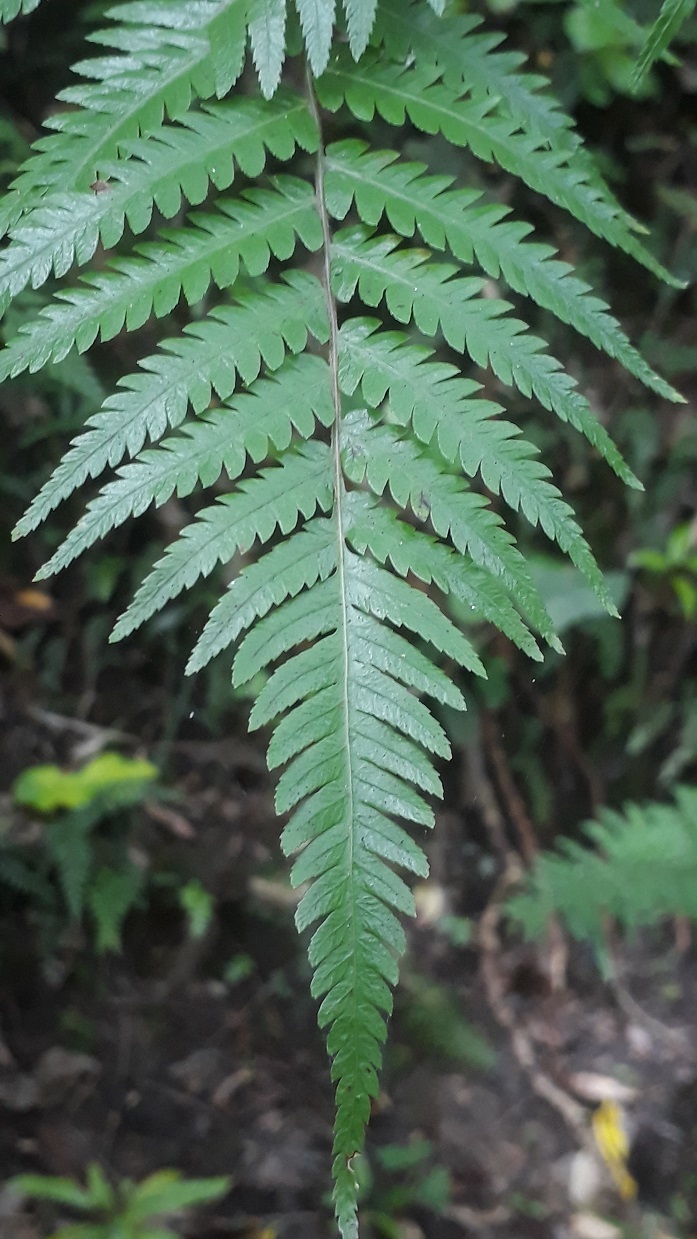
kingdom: Plantae
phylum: Tracheophyta
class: Polypodiopsida
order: Cyatheales
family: Cyatheaceae
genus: Alsophila
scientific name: Alsophila dealbata
